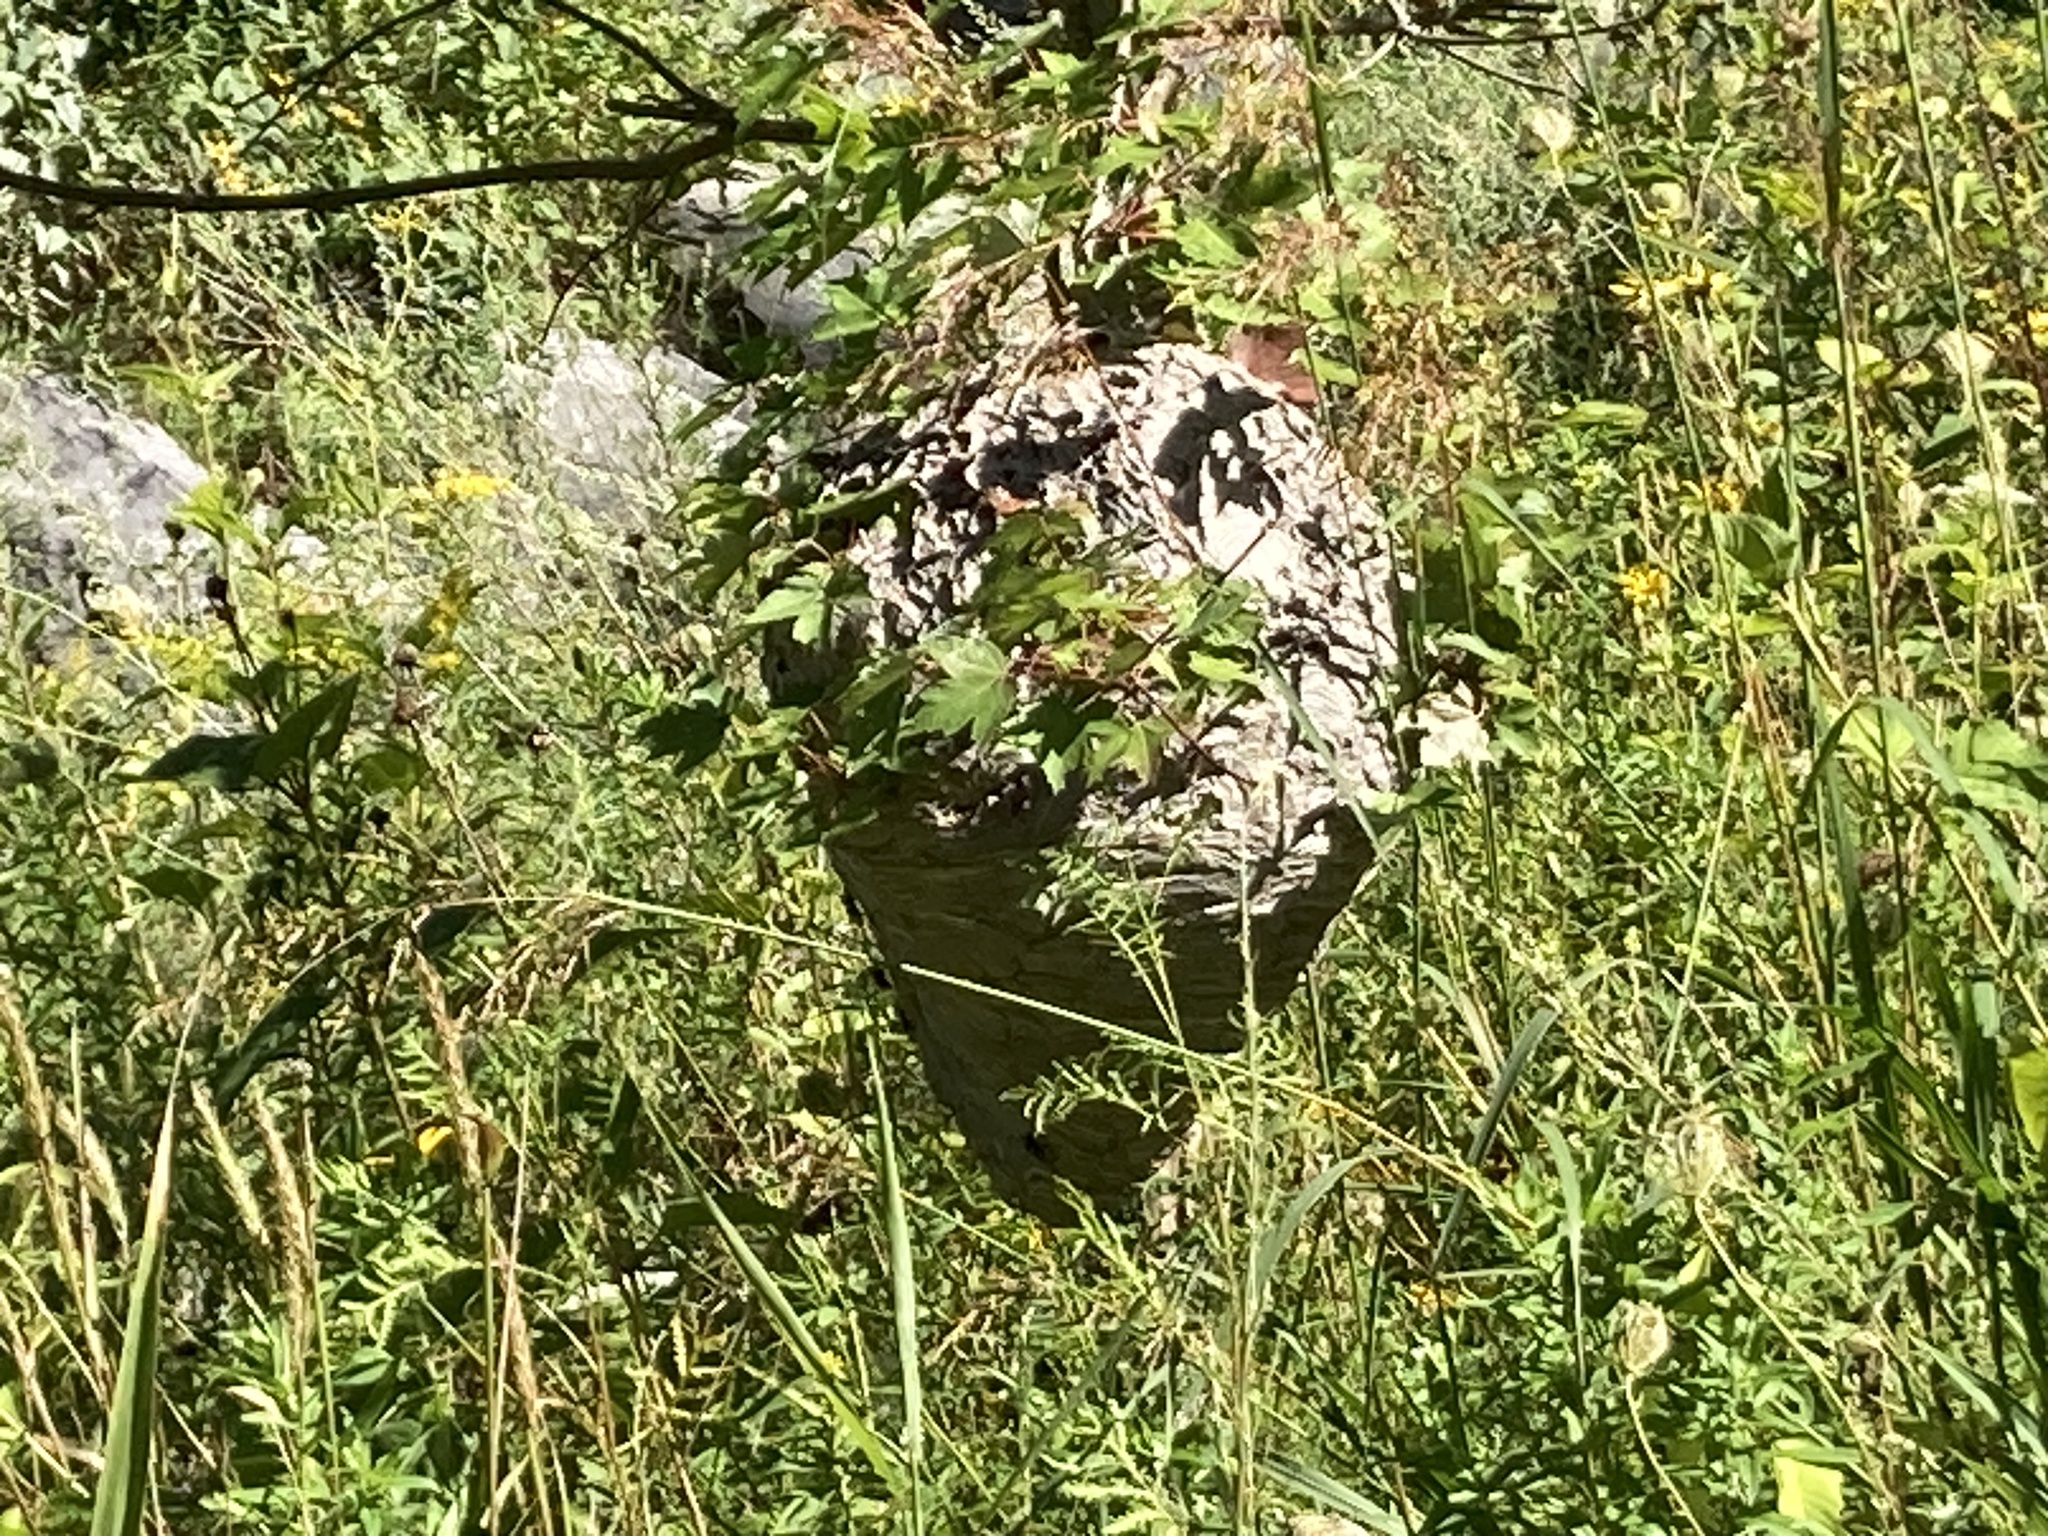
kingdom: Animalia
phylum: Arthropoda
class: Insecta
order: Hymenoptera
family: Vespidae
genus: Dolichovespula
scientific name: Dolichovespula maculata
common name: Bald-faced hornet
